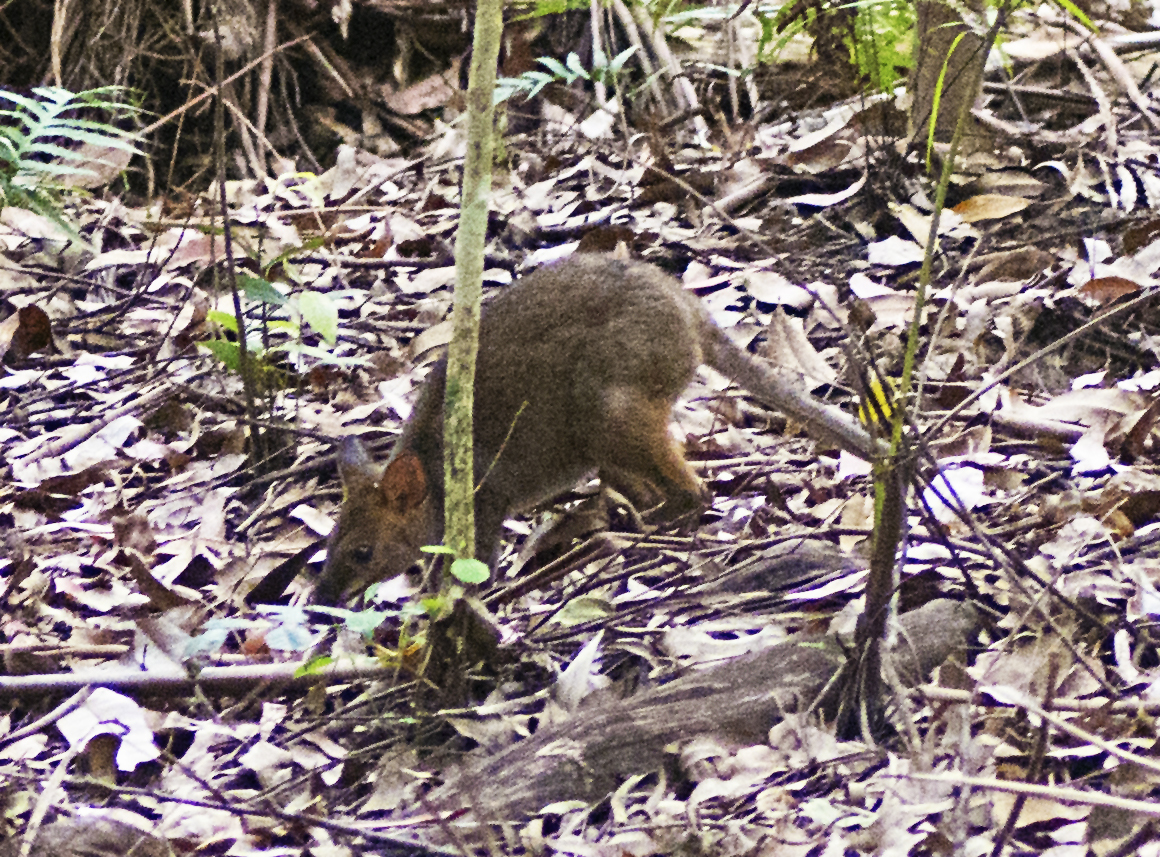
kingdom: Animalia
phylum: Chordata
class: Mammalia
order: Diprotodontia
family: Macropodidae
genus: Thylogale
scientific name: Thylogale stigmatica
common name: Red-legged pademelon
